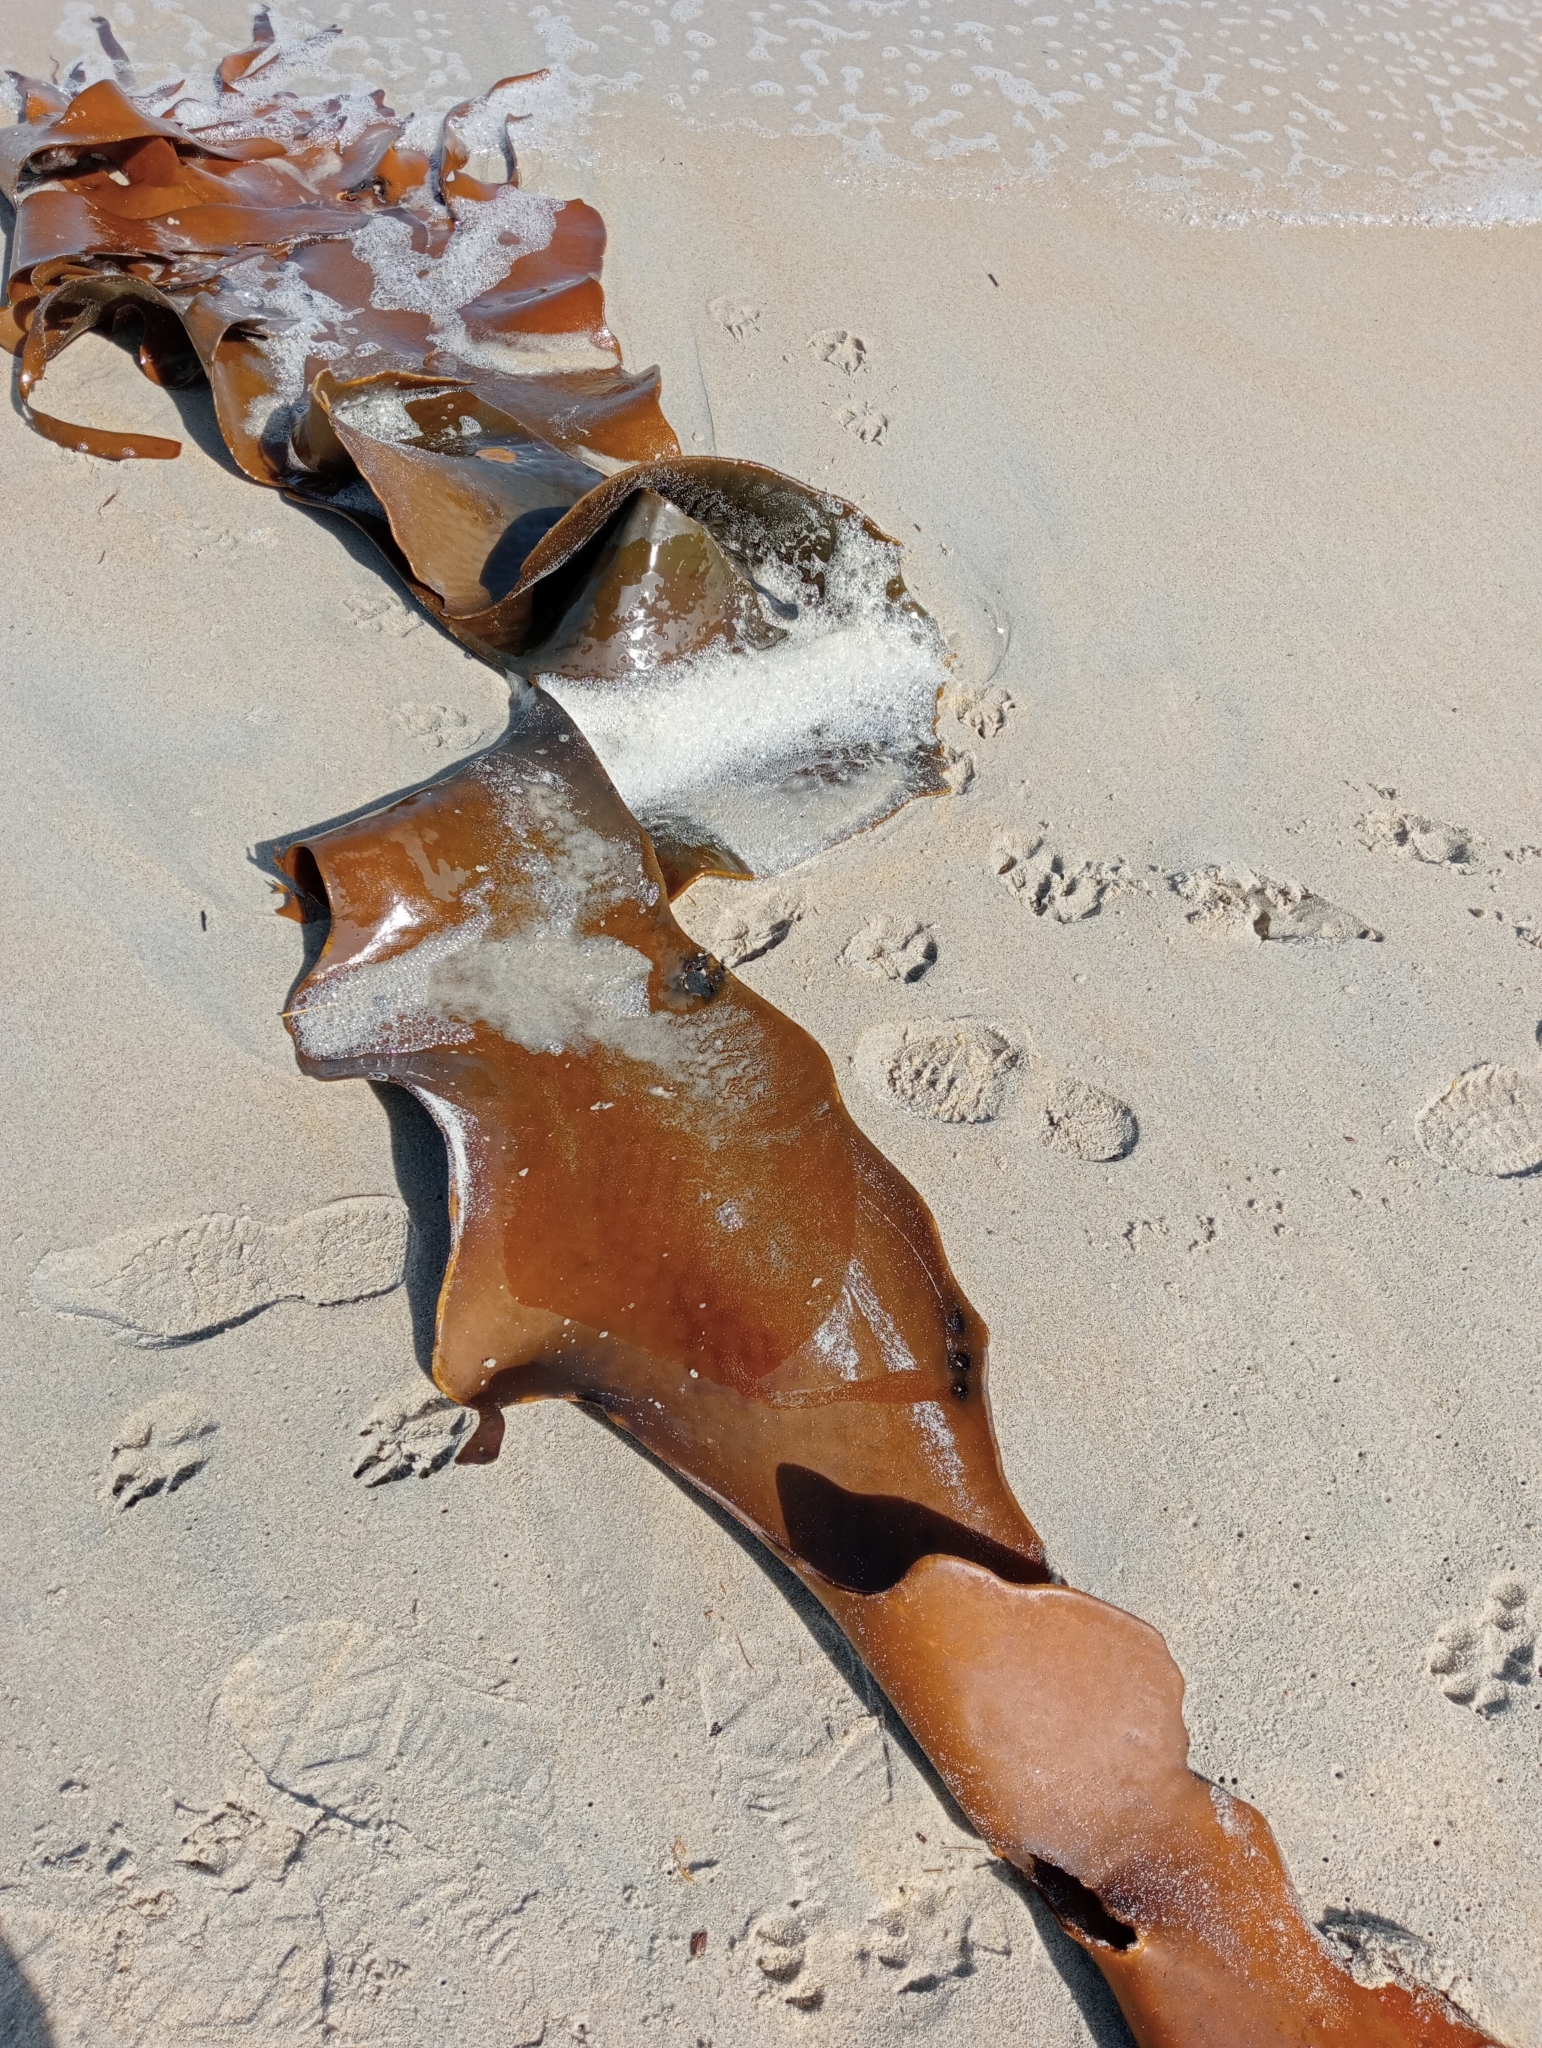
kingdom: Chromista
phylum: Ochrophyta
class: Phaeophyceae
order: Fucales
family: Durvillaeaceae
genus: Durvillaea
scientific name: Durvillaea poha
